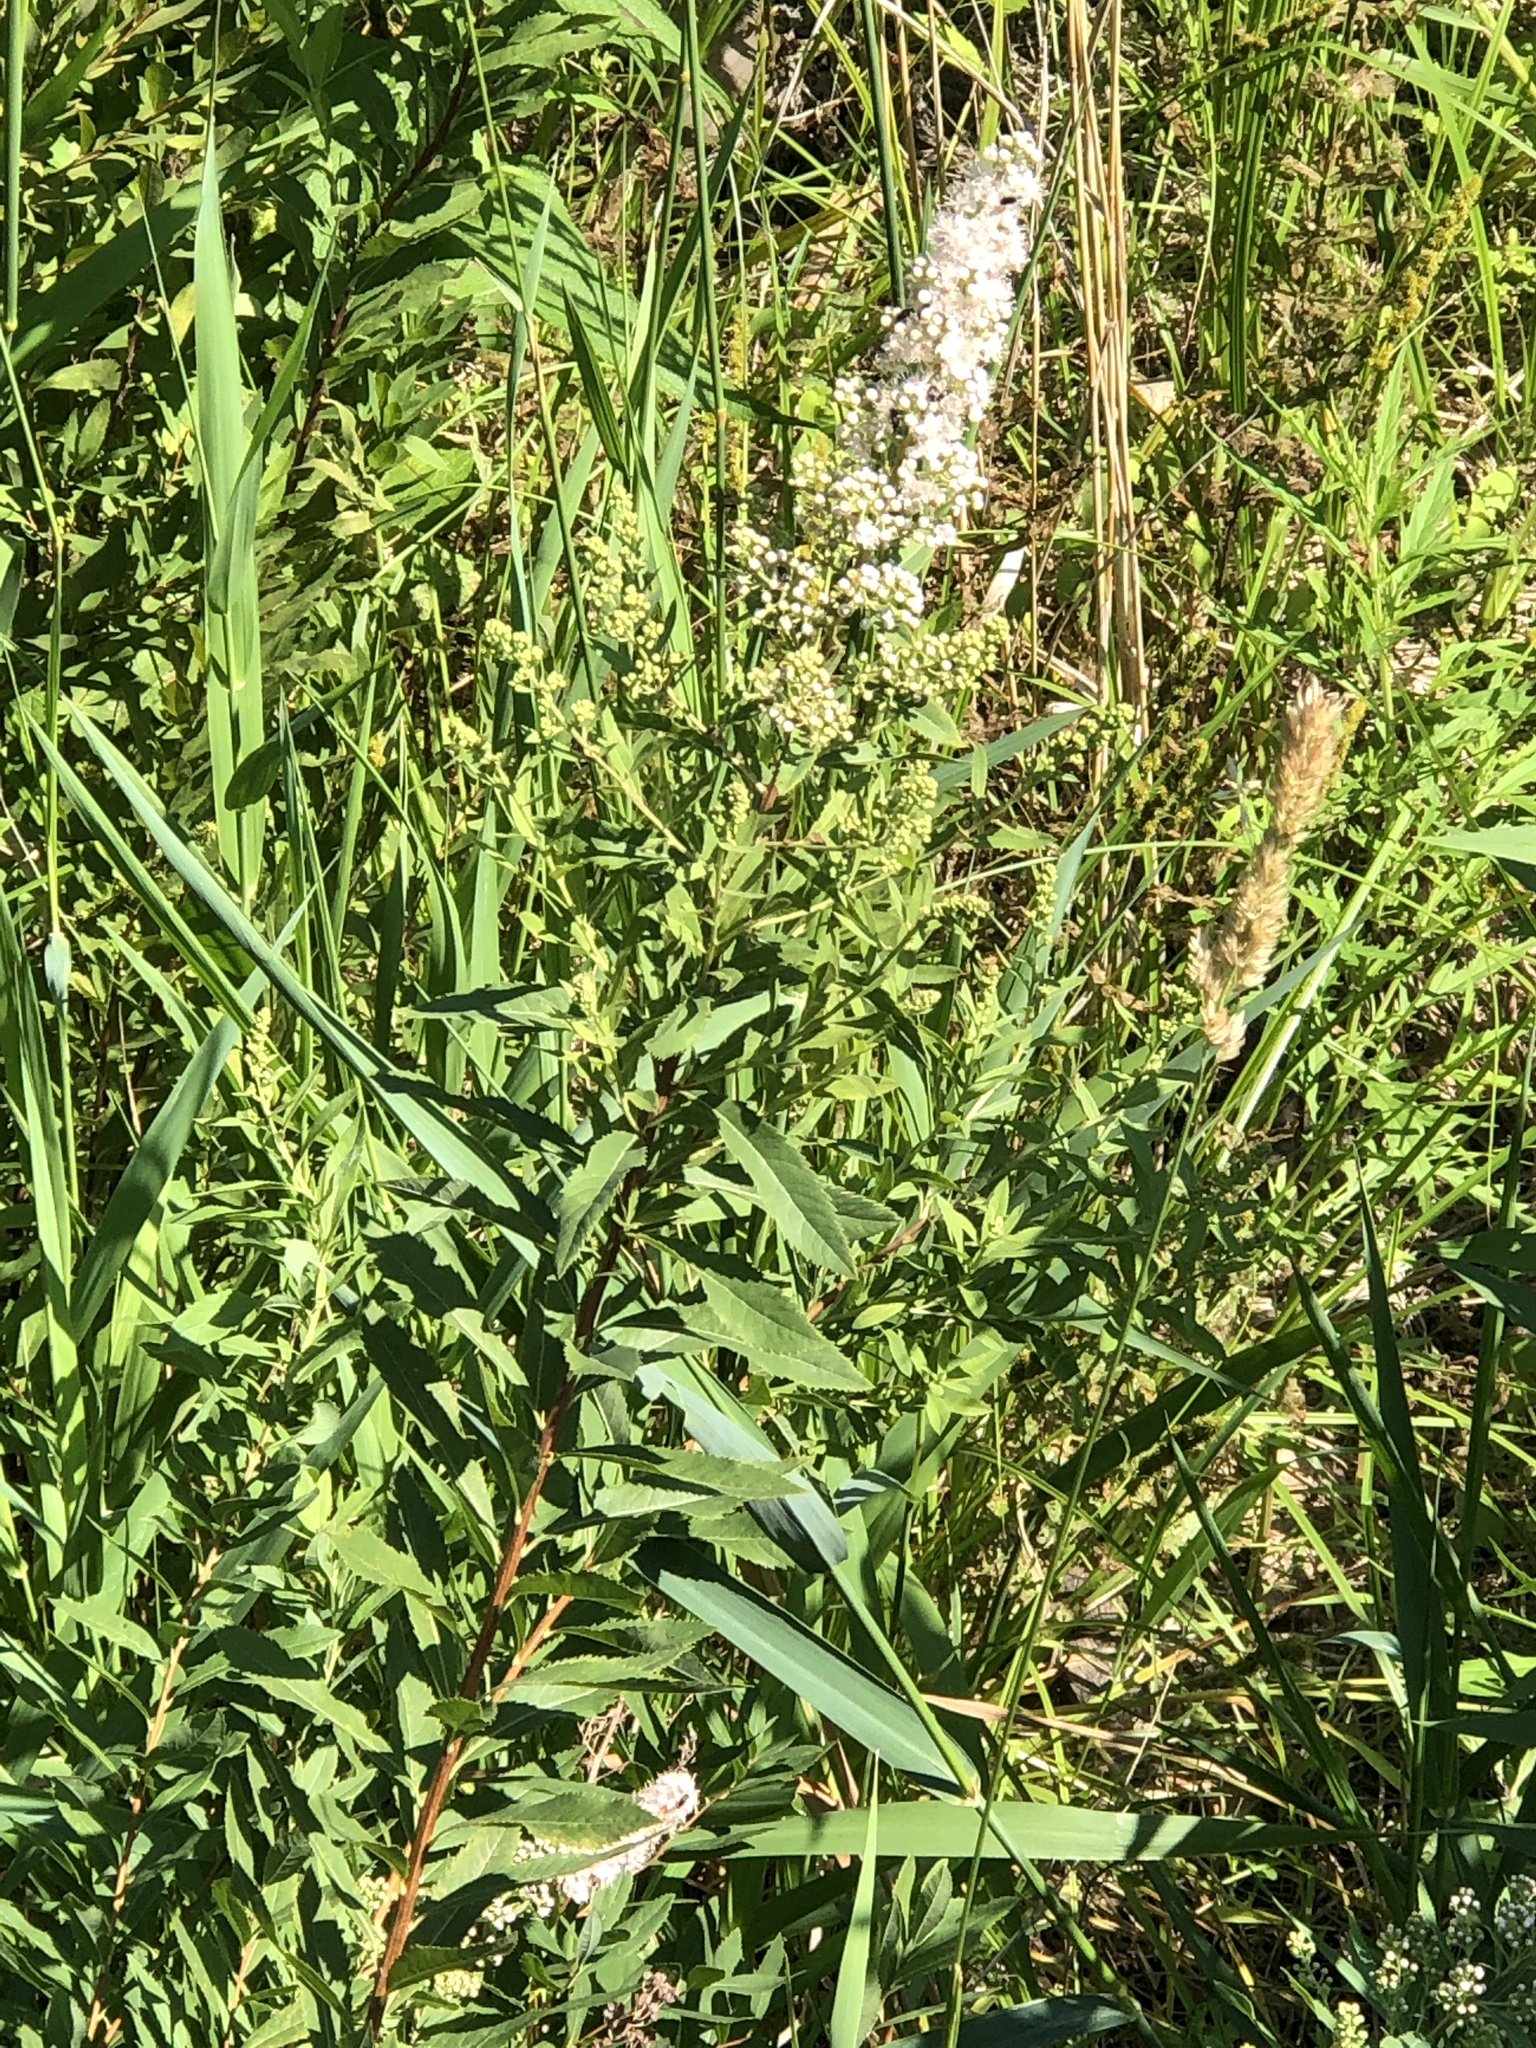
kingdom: Plantae
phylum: Tracheophyta
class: Magnoliopsida
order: Rosales
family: Rosaceae
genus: Spiraea
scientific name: Spiraea alba
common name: Pale bridewort
